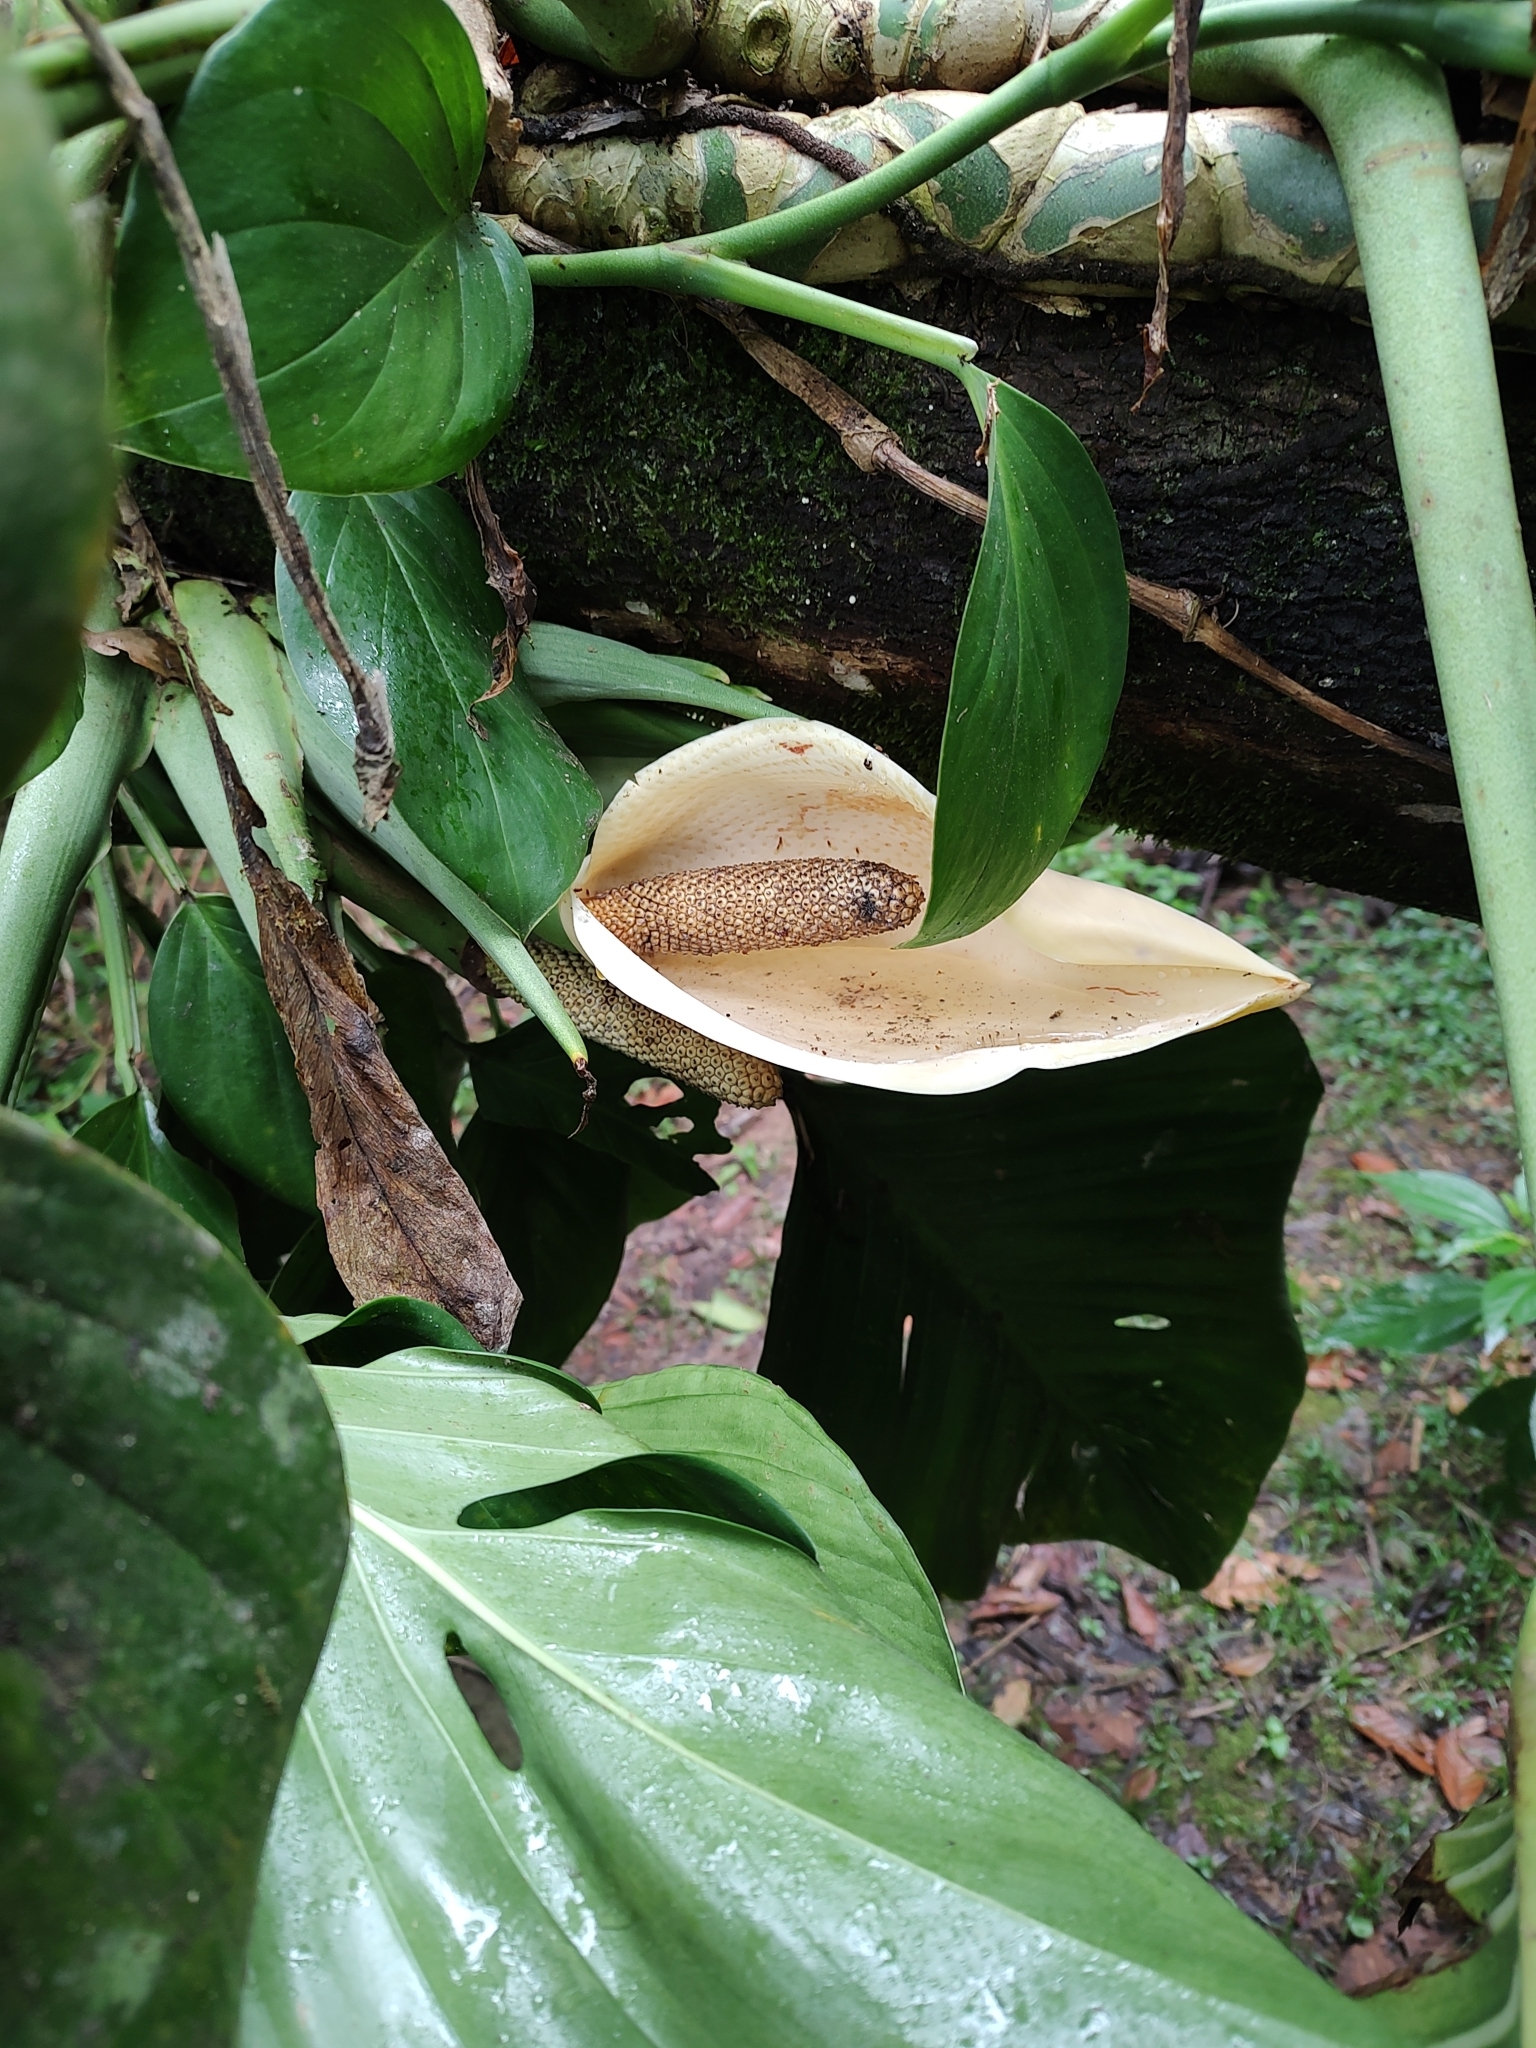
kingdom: Plantae
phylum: Tracheophyta
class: Liliopsida
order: Alismatales
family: Araceae
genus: Monstera
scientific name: Monstera adansonii
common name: Tarovine
